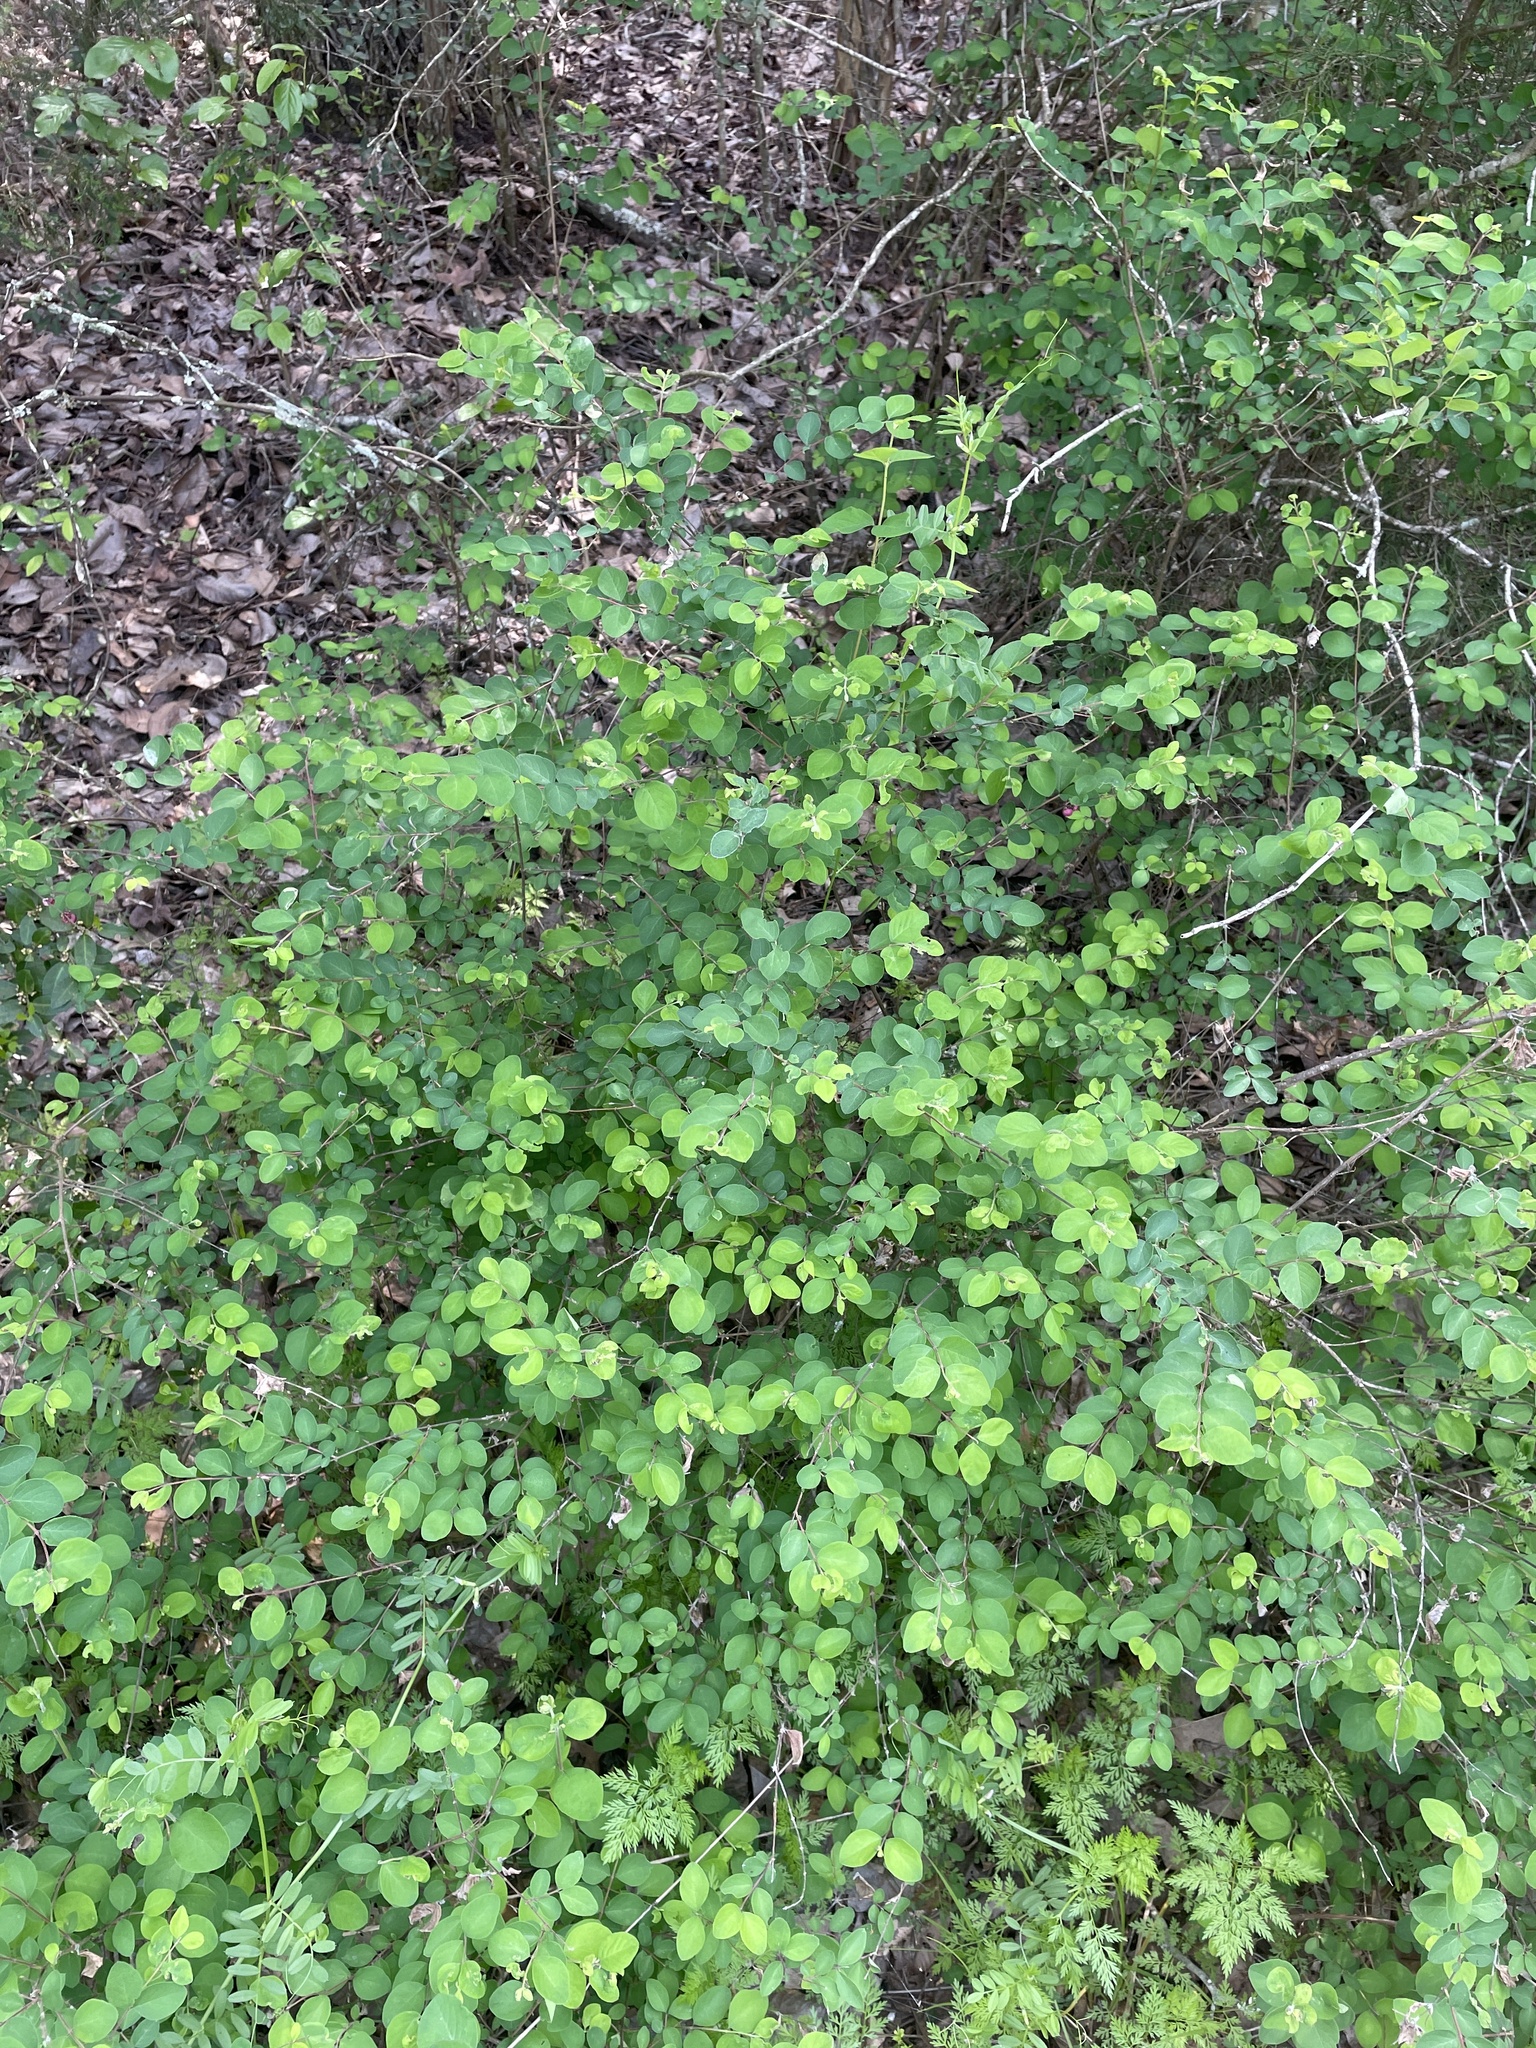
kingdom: Plantae
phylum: Tracheophyta
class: Magnoliopsida
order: Dipsacales
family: Caprifoliaceae
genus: Symphoricarpos
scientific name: Symphoricarpos orbiculatus
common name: Coralberry
